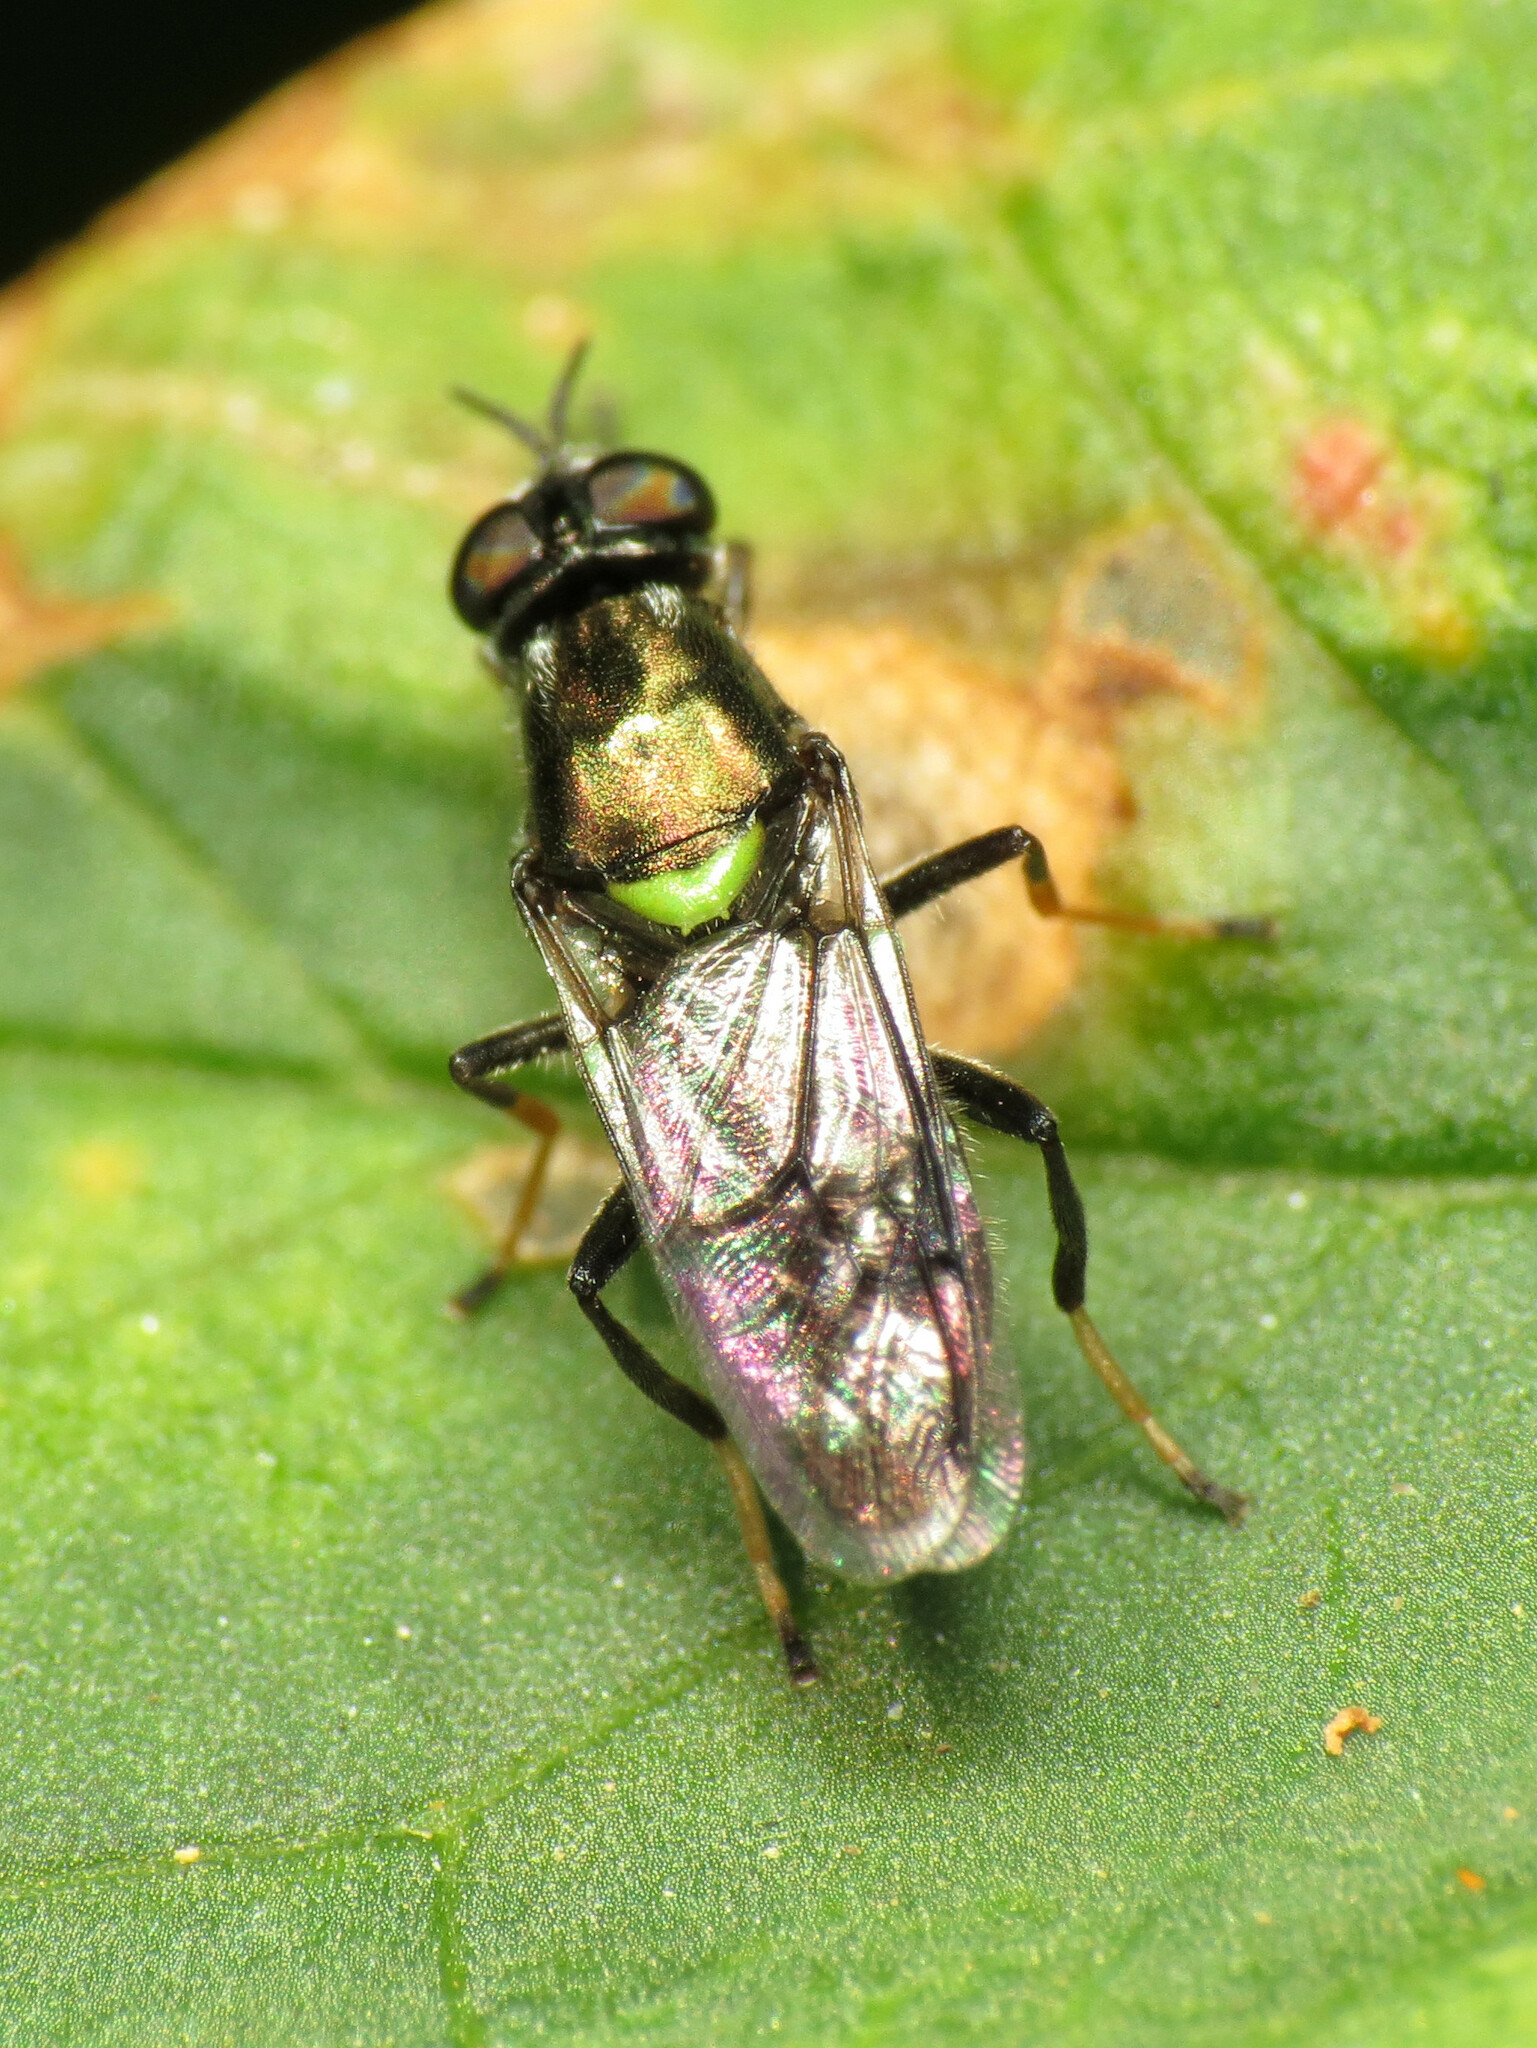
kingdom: Animalia
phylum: Arthropoda
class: Insecta
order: Diptera
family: Stratiomyidae
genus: Myxosargus
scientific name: Myxosargus nigricormis
